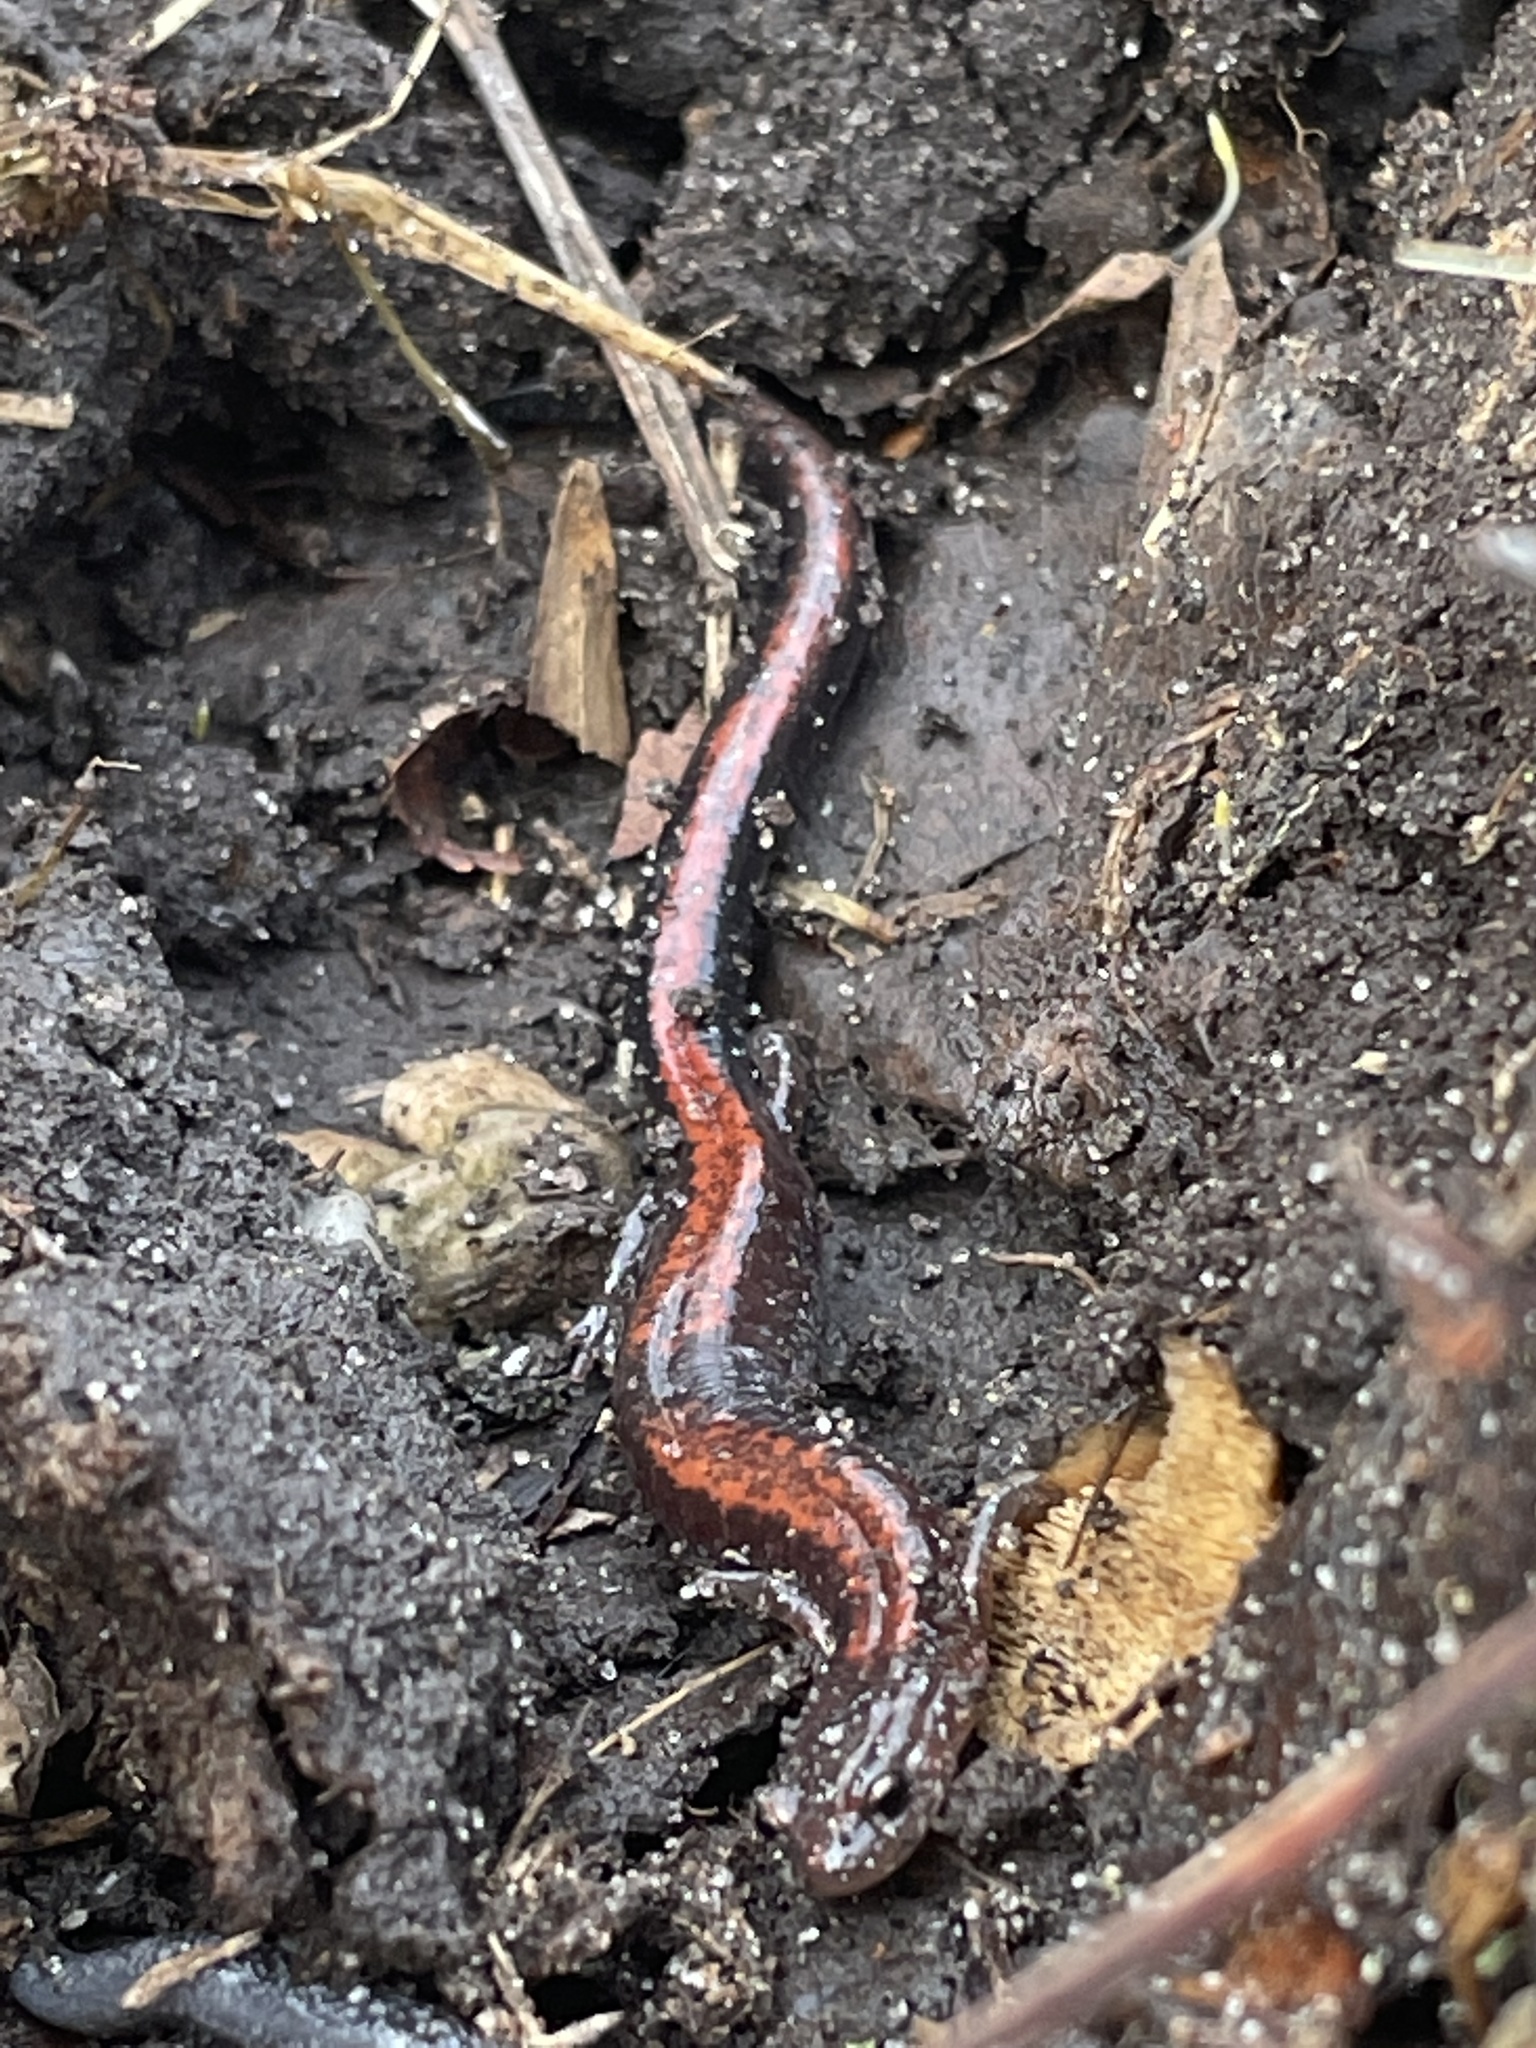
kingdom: Animalia
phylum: Chordata
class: Amphibia
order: Caudata
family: Plethodontidae
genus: Plethodon
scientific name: Plethodon cinereus
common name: Redback salamander
